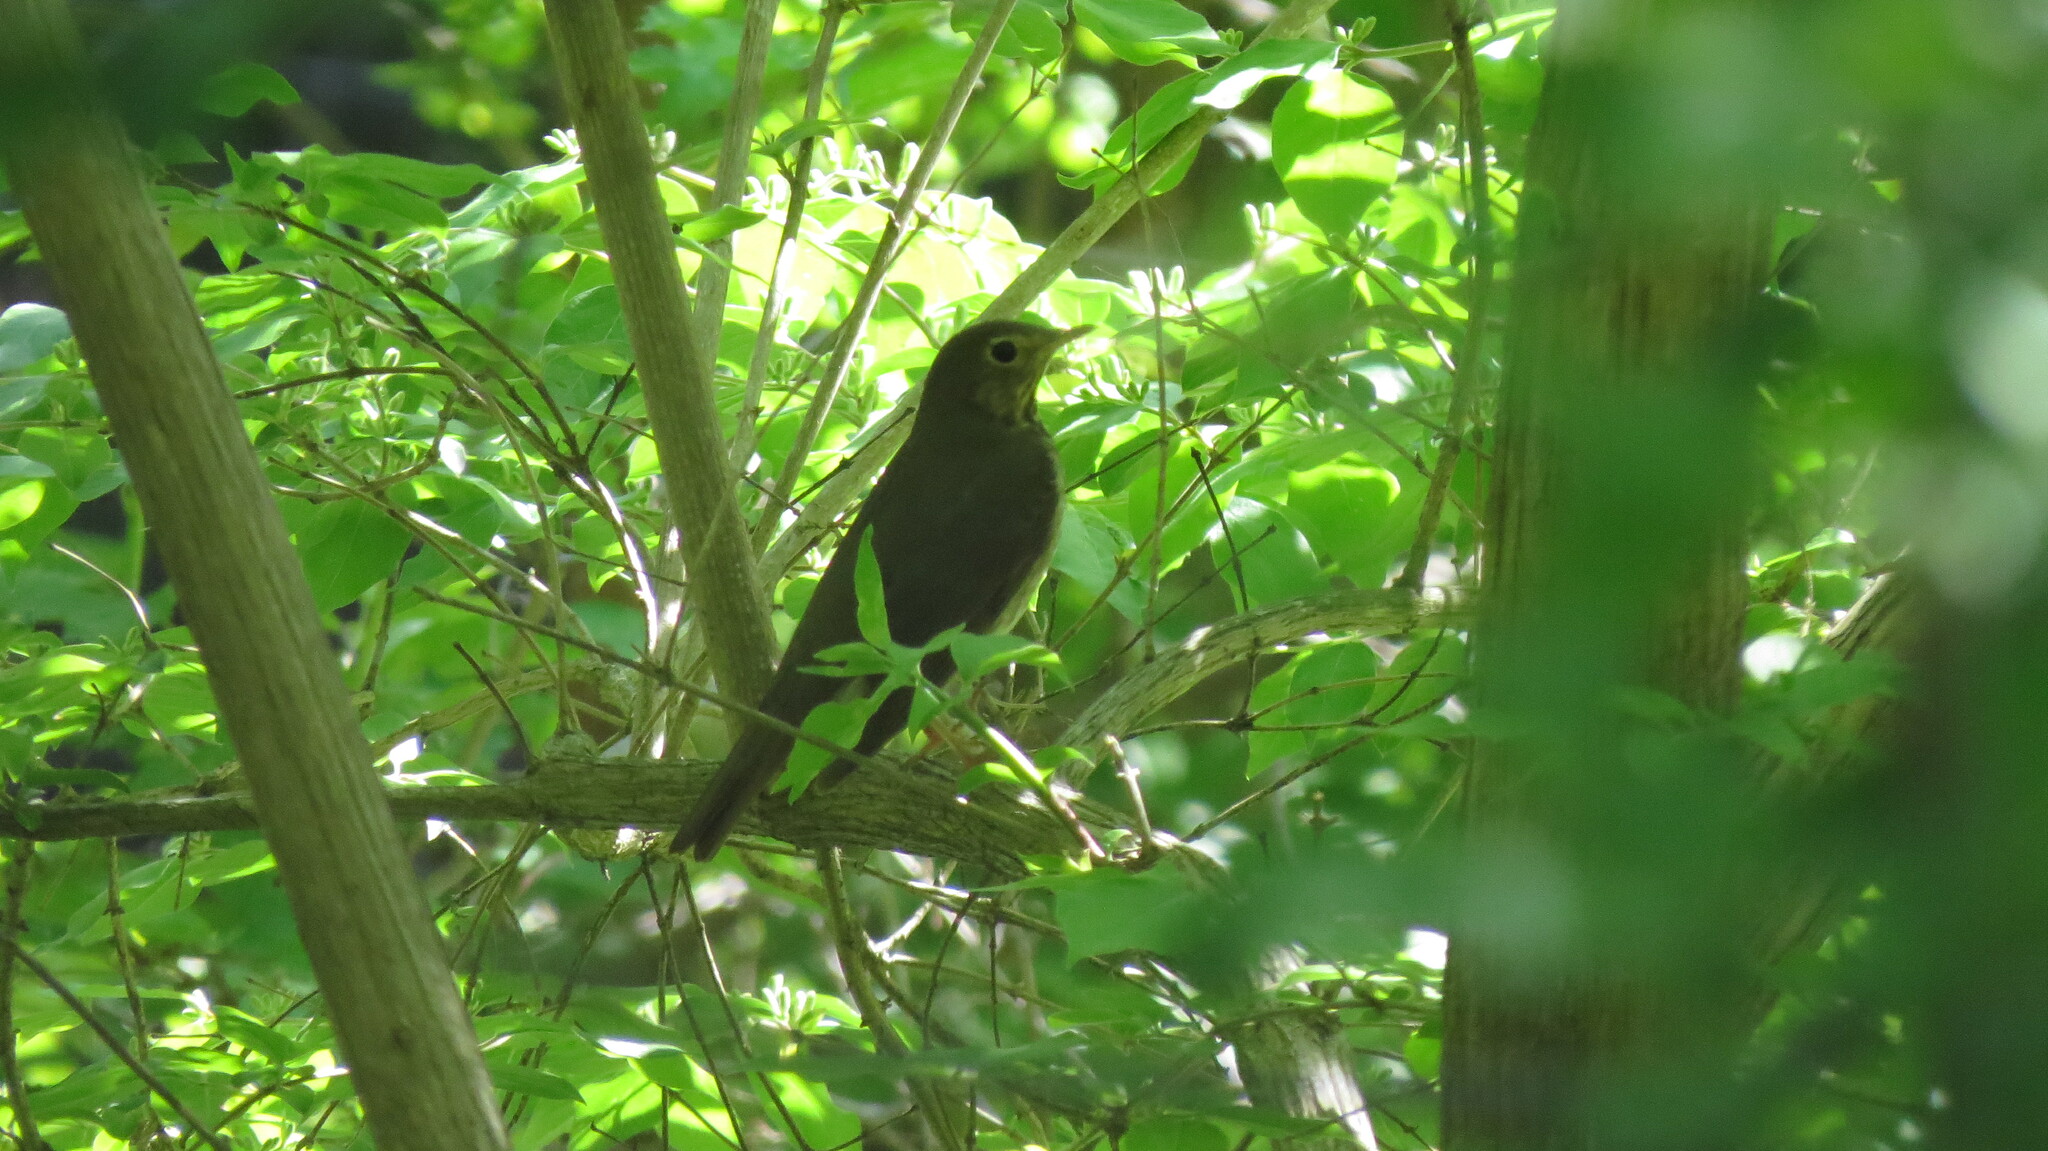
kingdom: Animalia
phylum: Chordata
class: Aves
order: Passeriformes
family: Turdidae
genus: Catharus
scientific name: Catharus ustulatus
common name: Swainson's thrush
